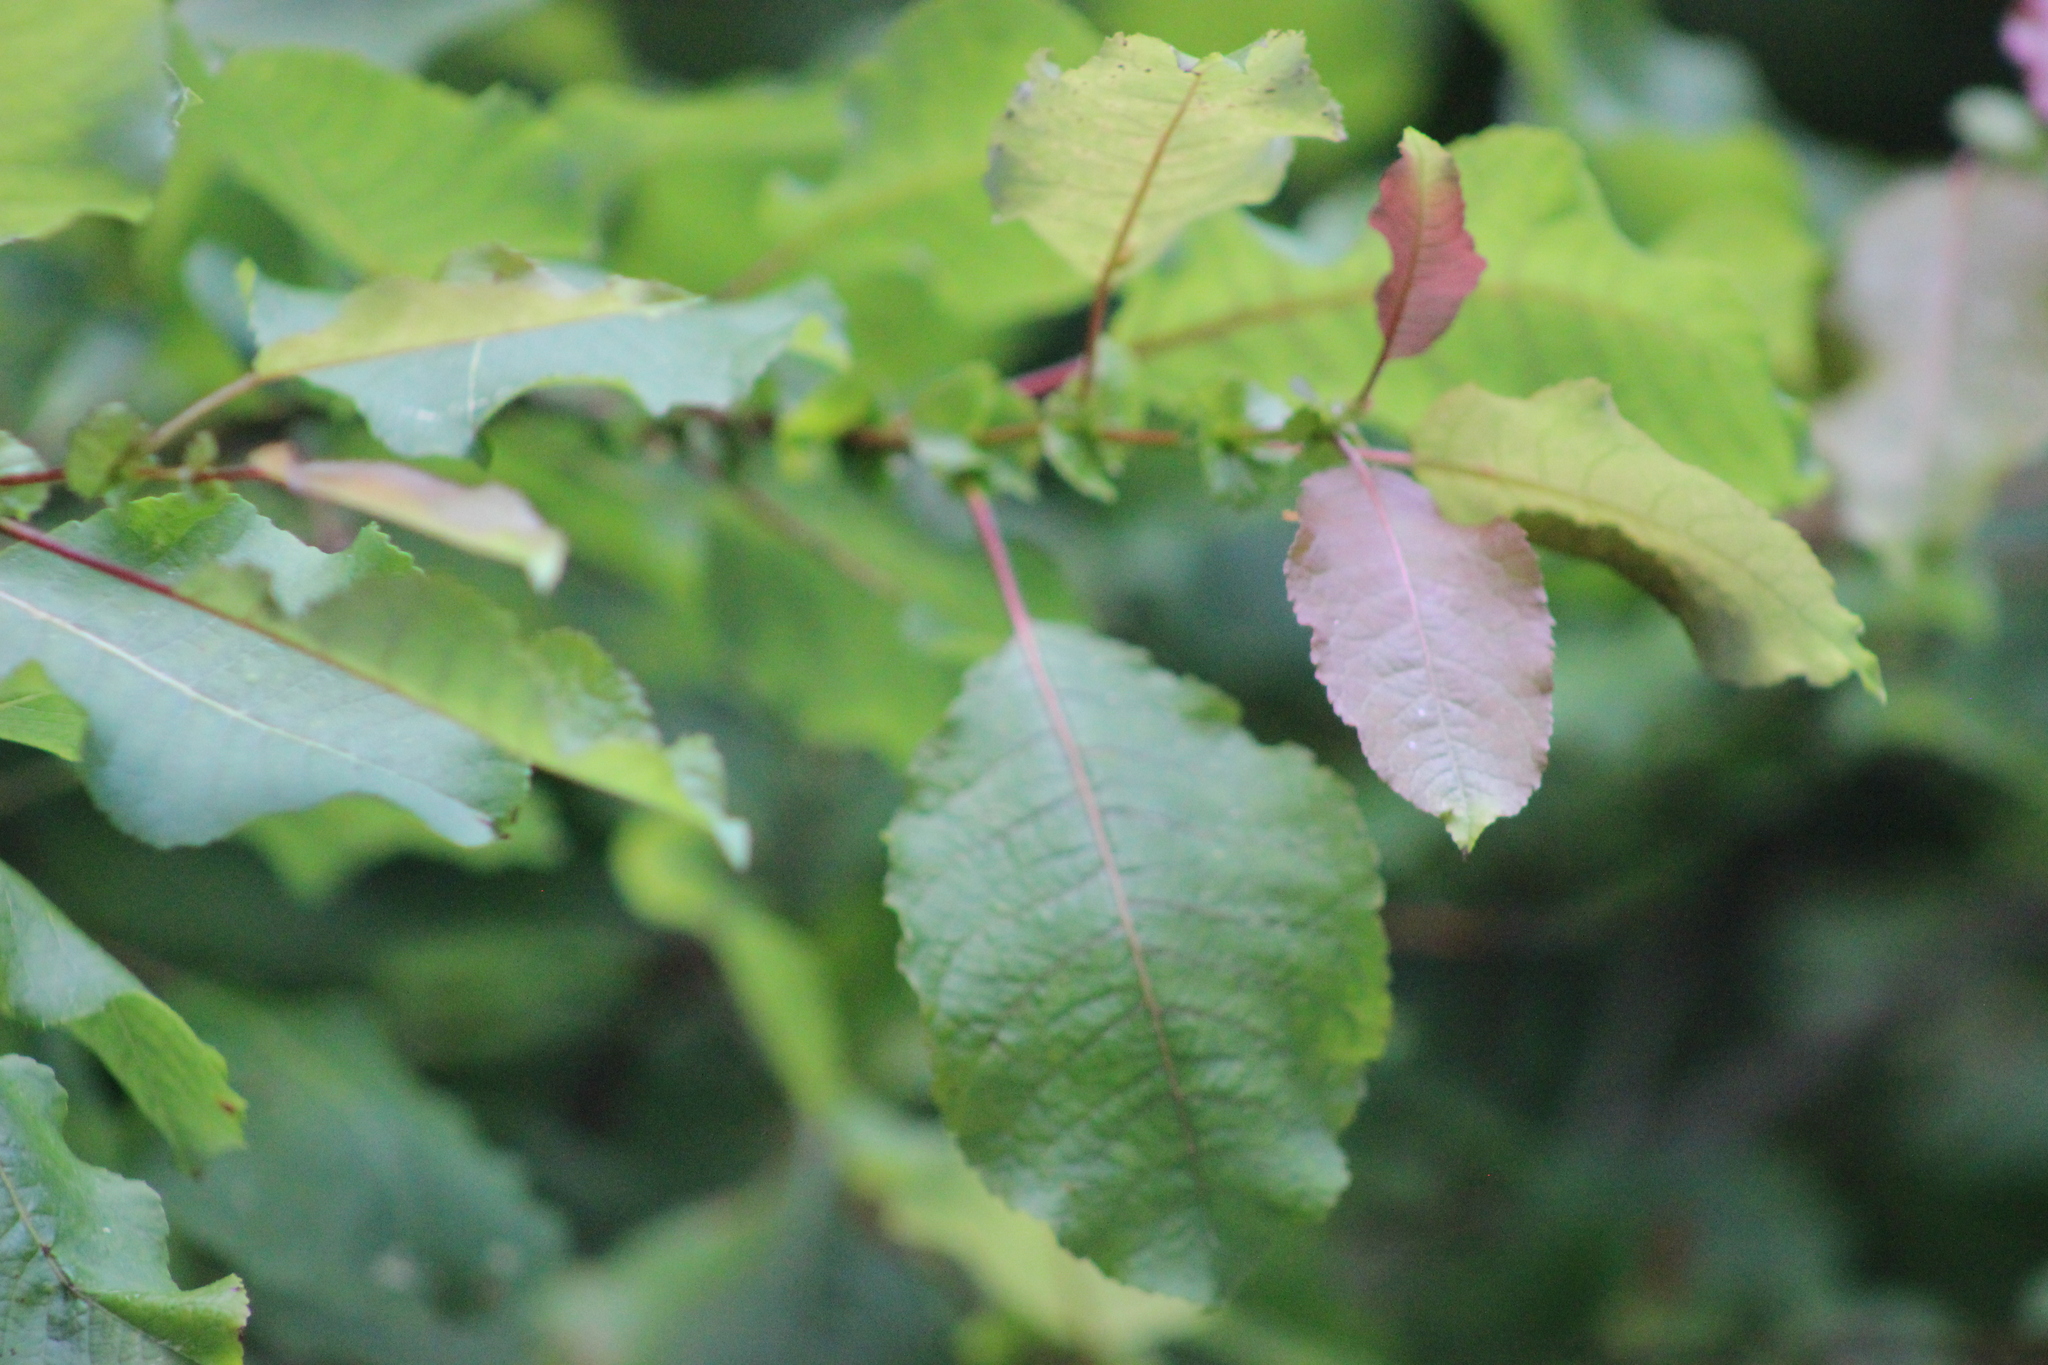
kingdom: Plantae
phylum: Tracheophyta
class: Magnoliopsida
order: Malpighiales
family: Salicaceae
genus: Salix
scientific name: Salix pyrolifolia
